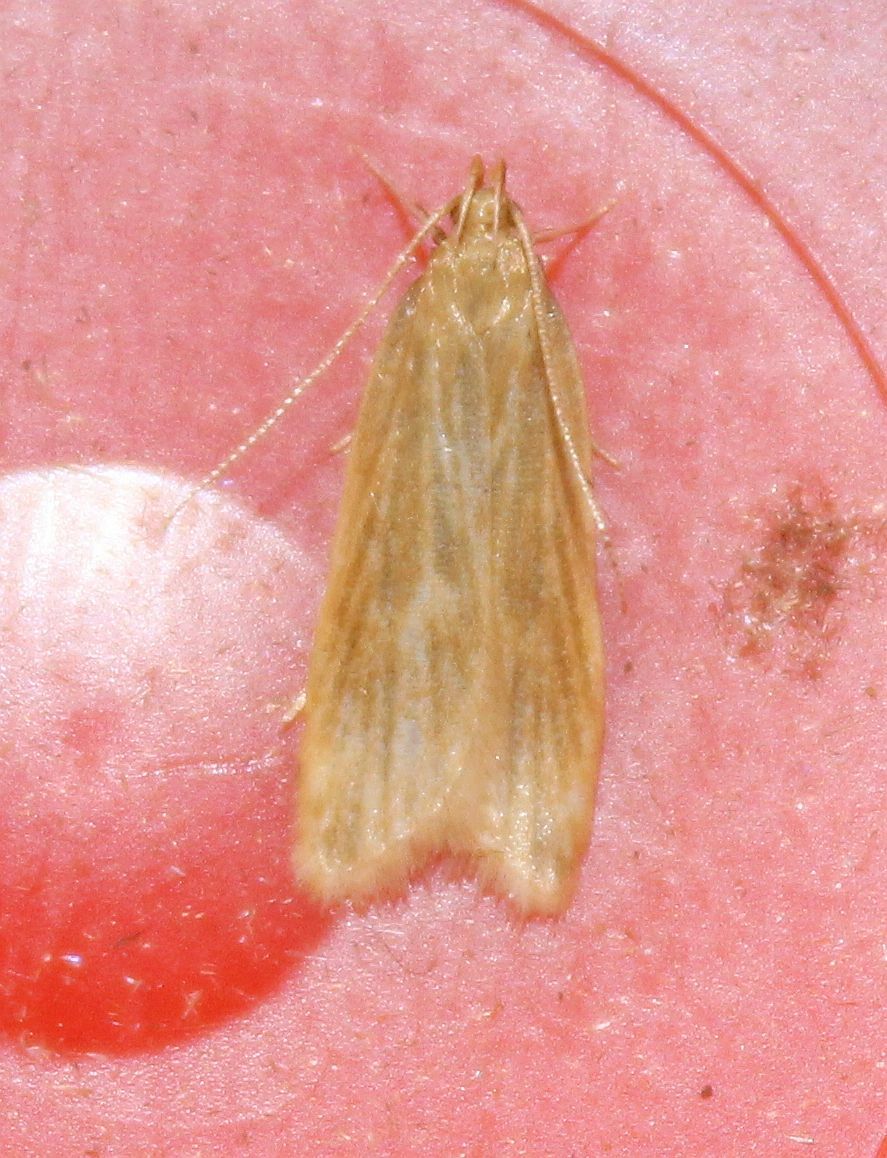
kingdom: Animalia
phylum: Arthropoda
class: Insecta
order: Lepidoptera
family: Gelechiidae
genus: Helcystogramma
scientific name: Helcystogramma rufescens
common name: Orange crest
